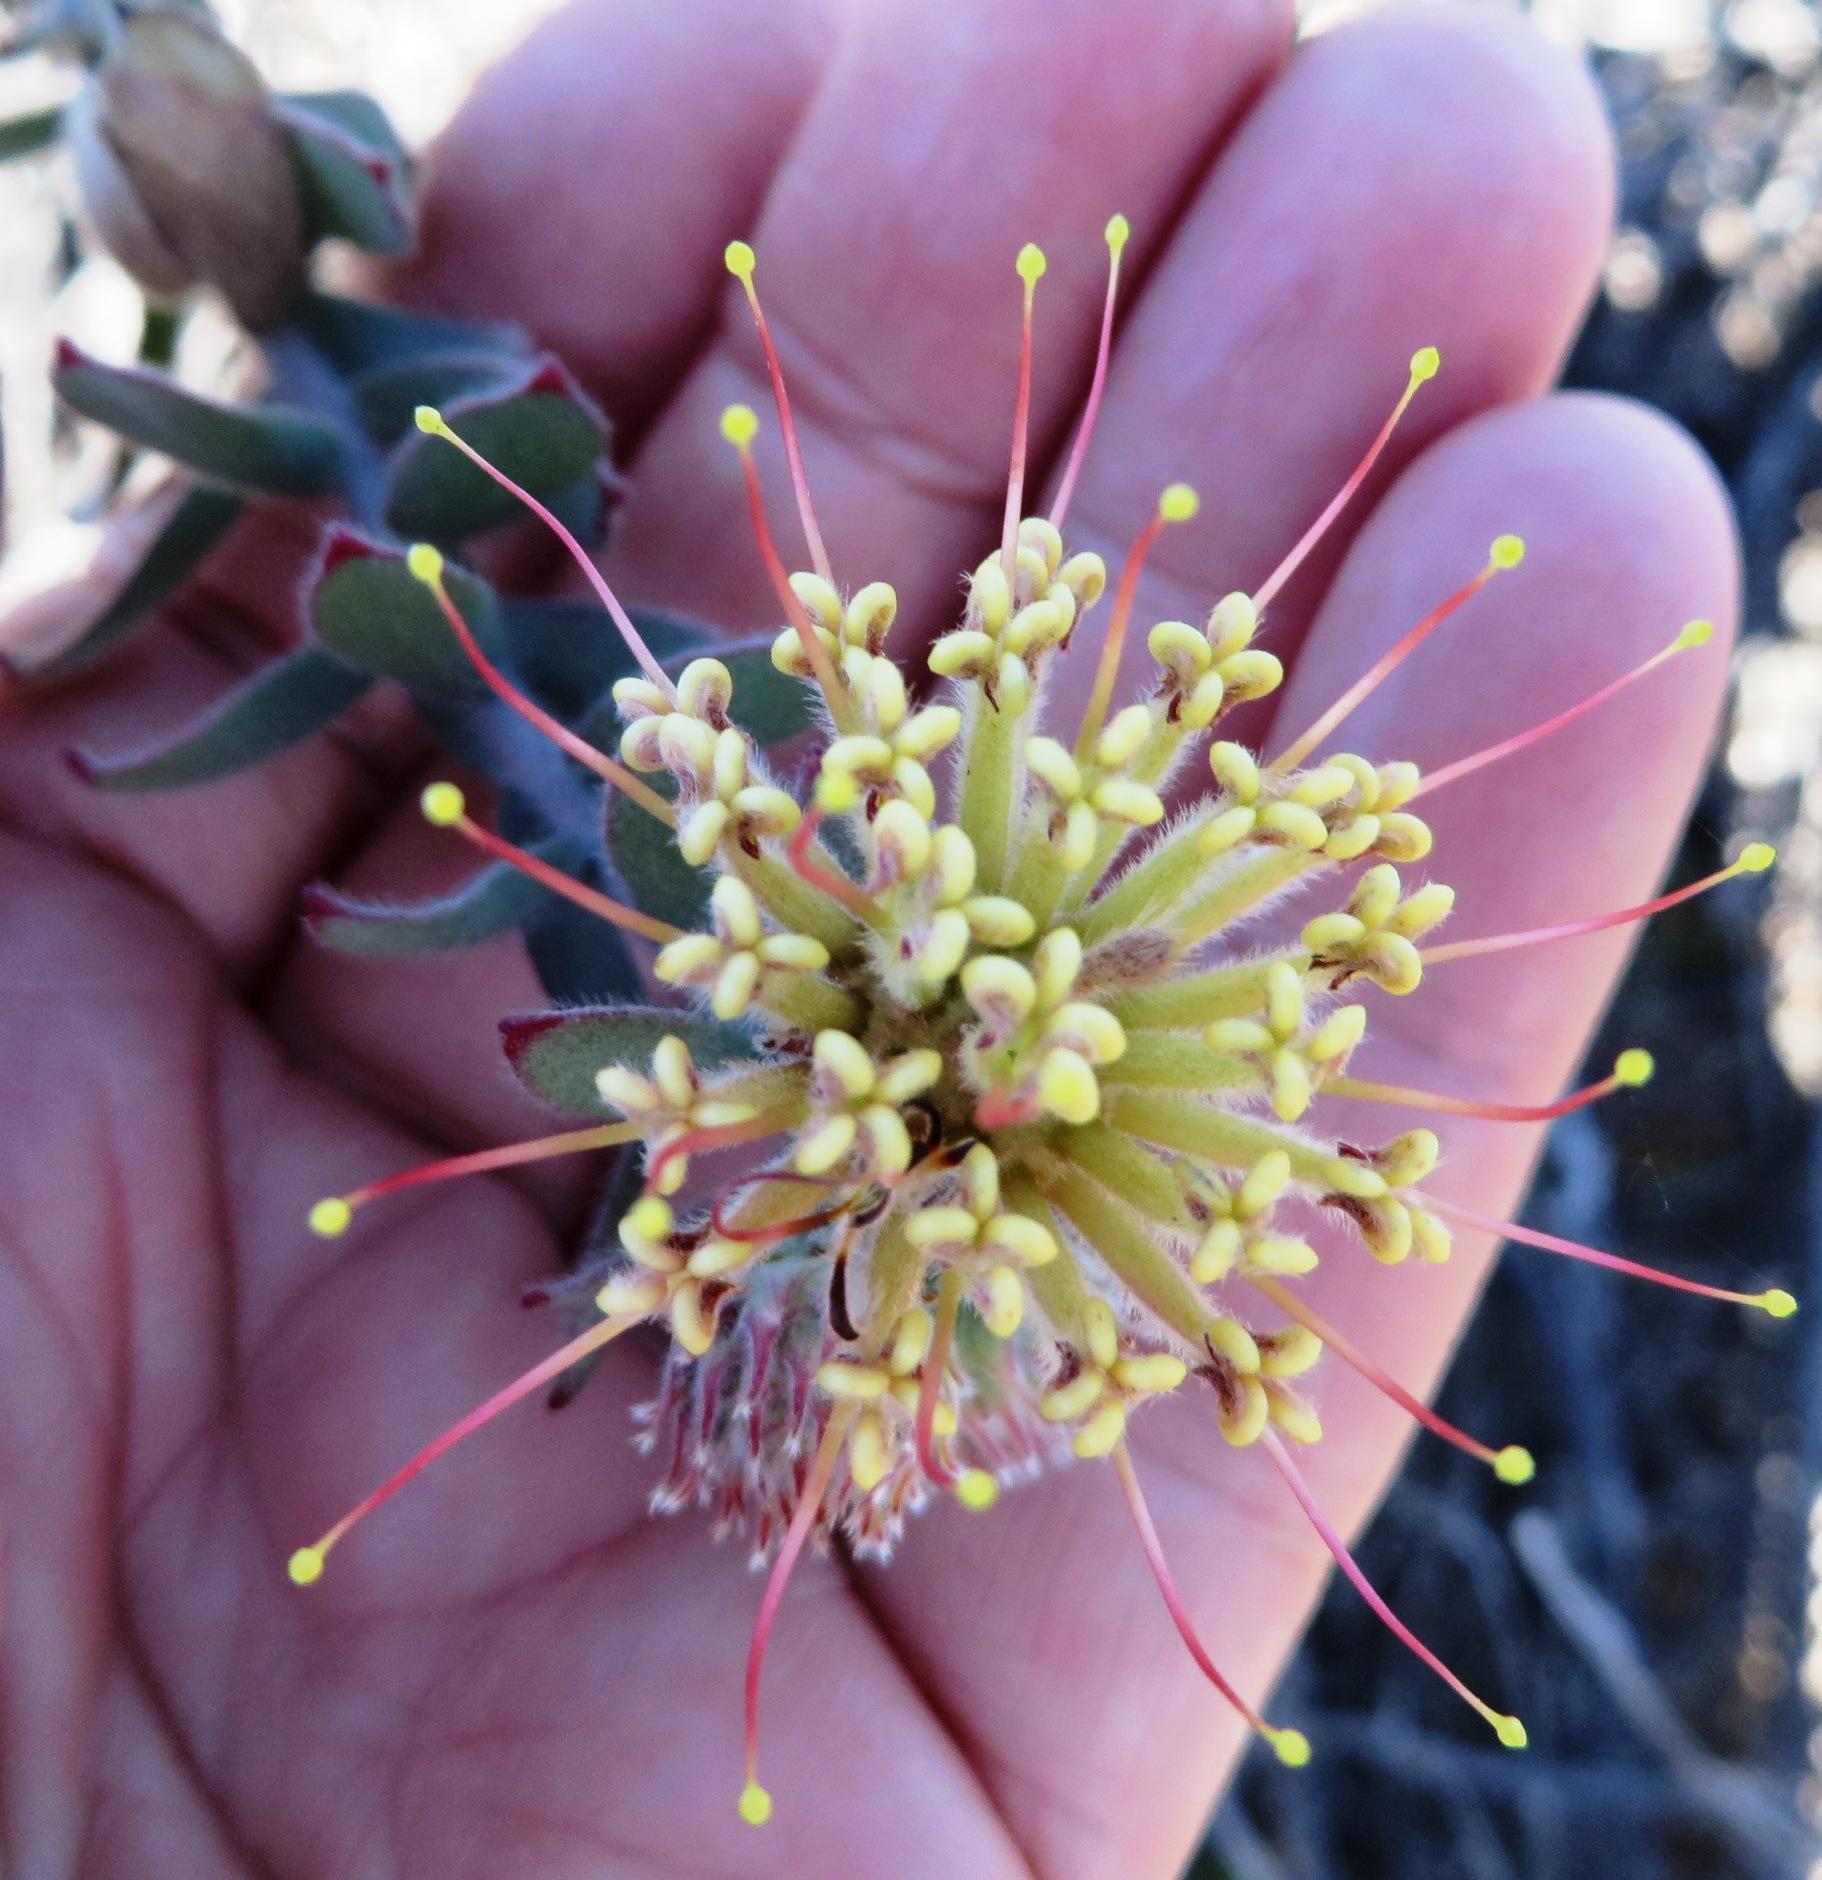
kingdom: Plantae
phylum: Tracheophyta
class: Magnoliopsida
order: Proteales
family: Proteaceae
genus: Leucospermum
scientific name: Leucospermum calligerum
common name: Arid pincushion
